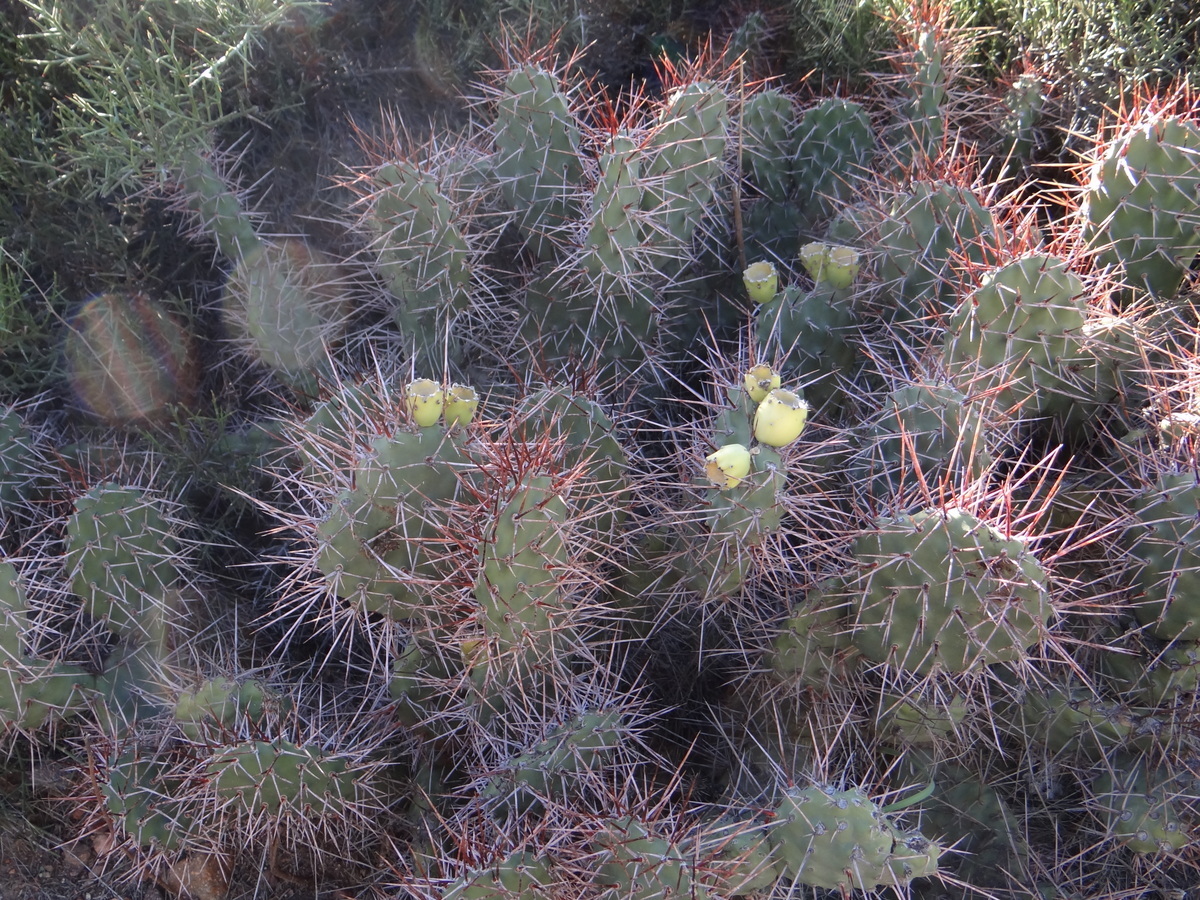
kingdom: Plantae
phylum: Tracheophyta
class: Magnoliopsida
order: Caryophyllales
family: Cactaceae
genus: Opuntia
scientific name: Opuntia sulphurea
